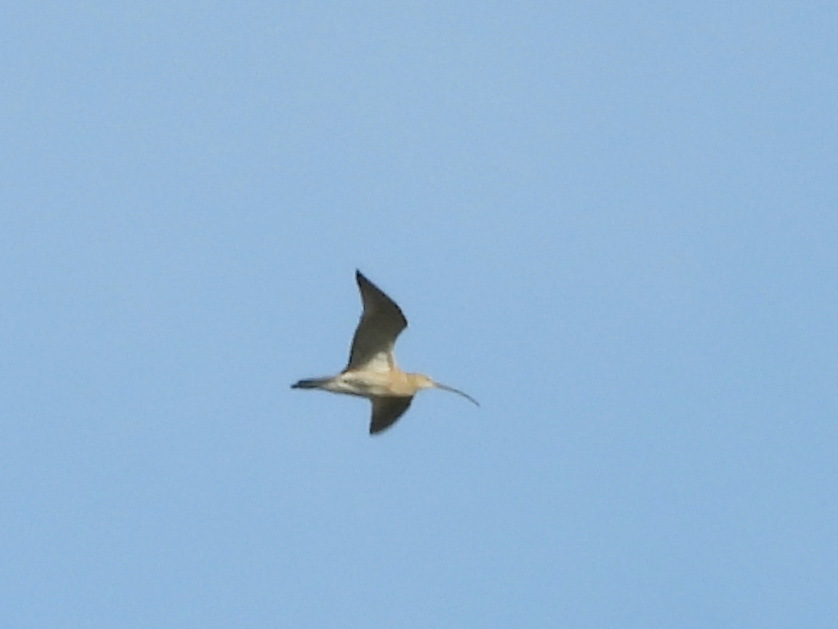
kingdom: Animalia
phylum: Chordata
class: Aves
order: Charadriiformes
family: Scolopacidae
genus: Numenius
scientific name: Numenius arquata
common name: Eurasian curlew
